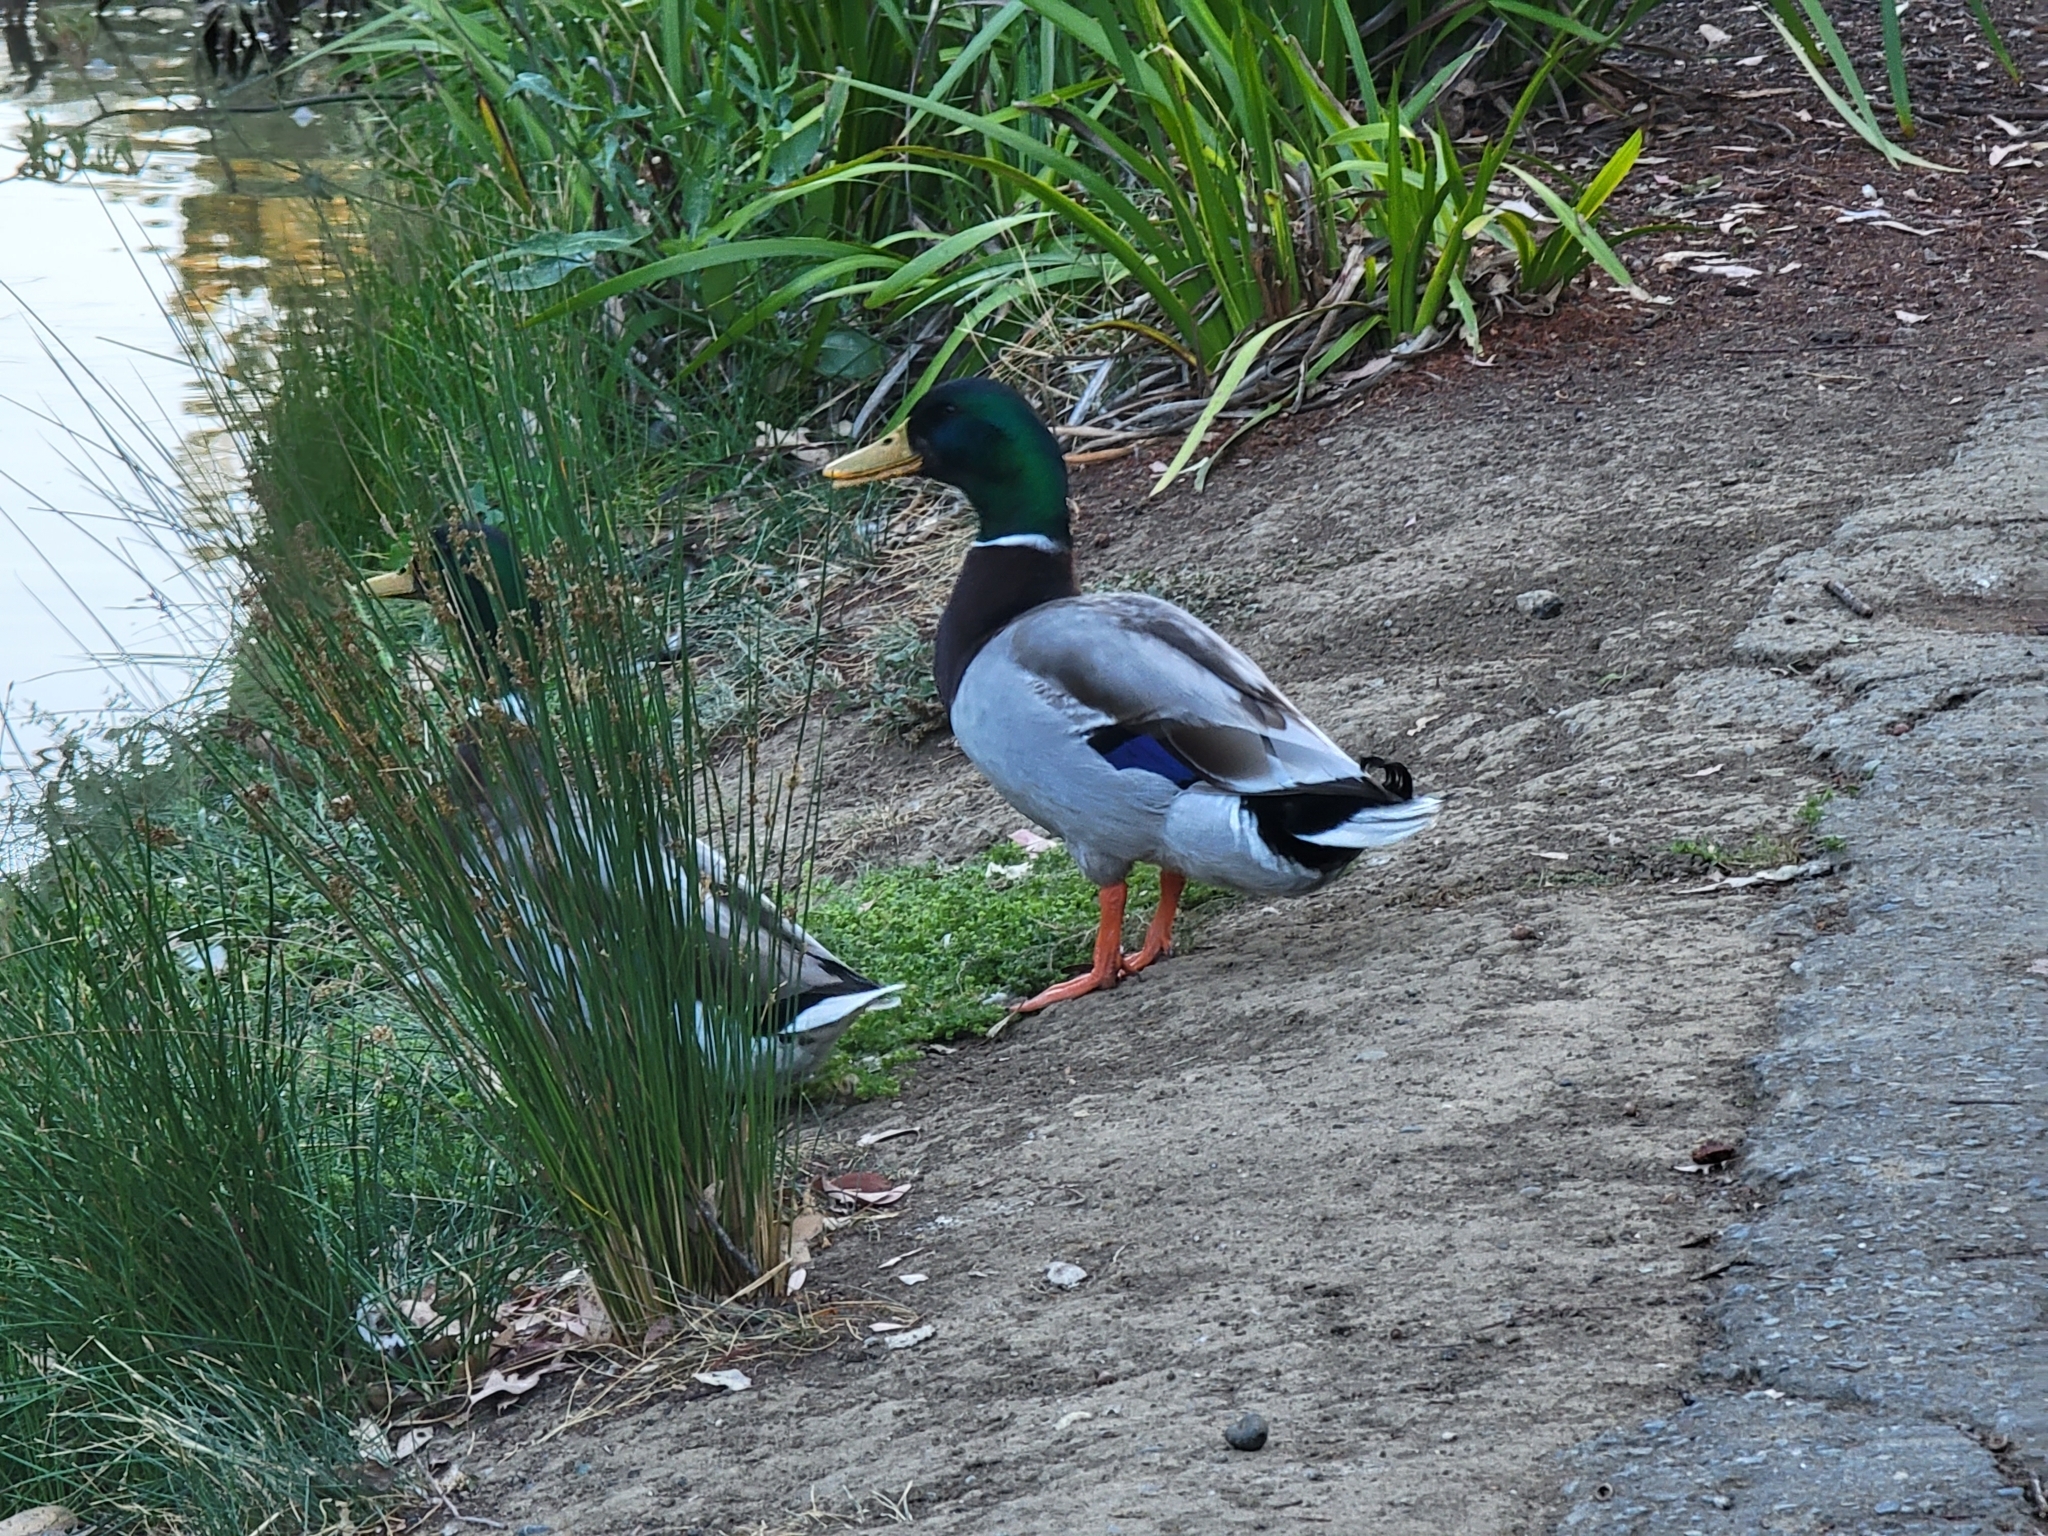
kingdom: Animalia
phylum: Chordata
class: Aves
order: Anseriformes
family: Anatidae
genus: Anas
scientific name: Anas platyrhynchos
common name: Mallard
